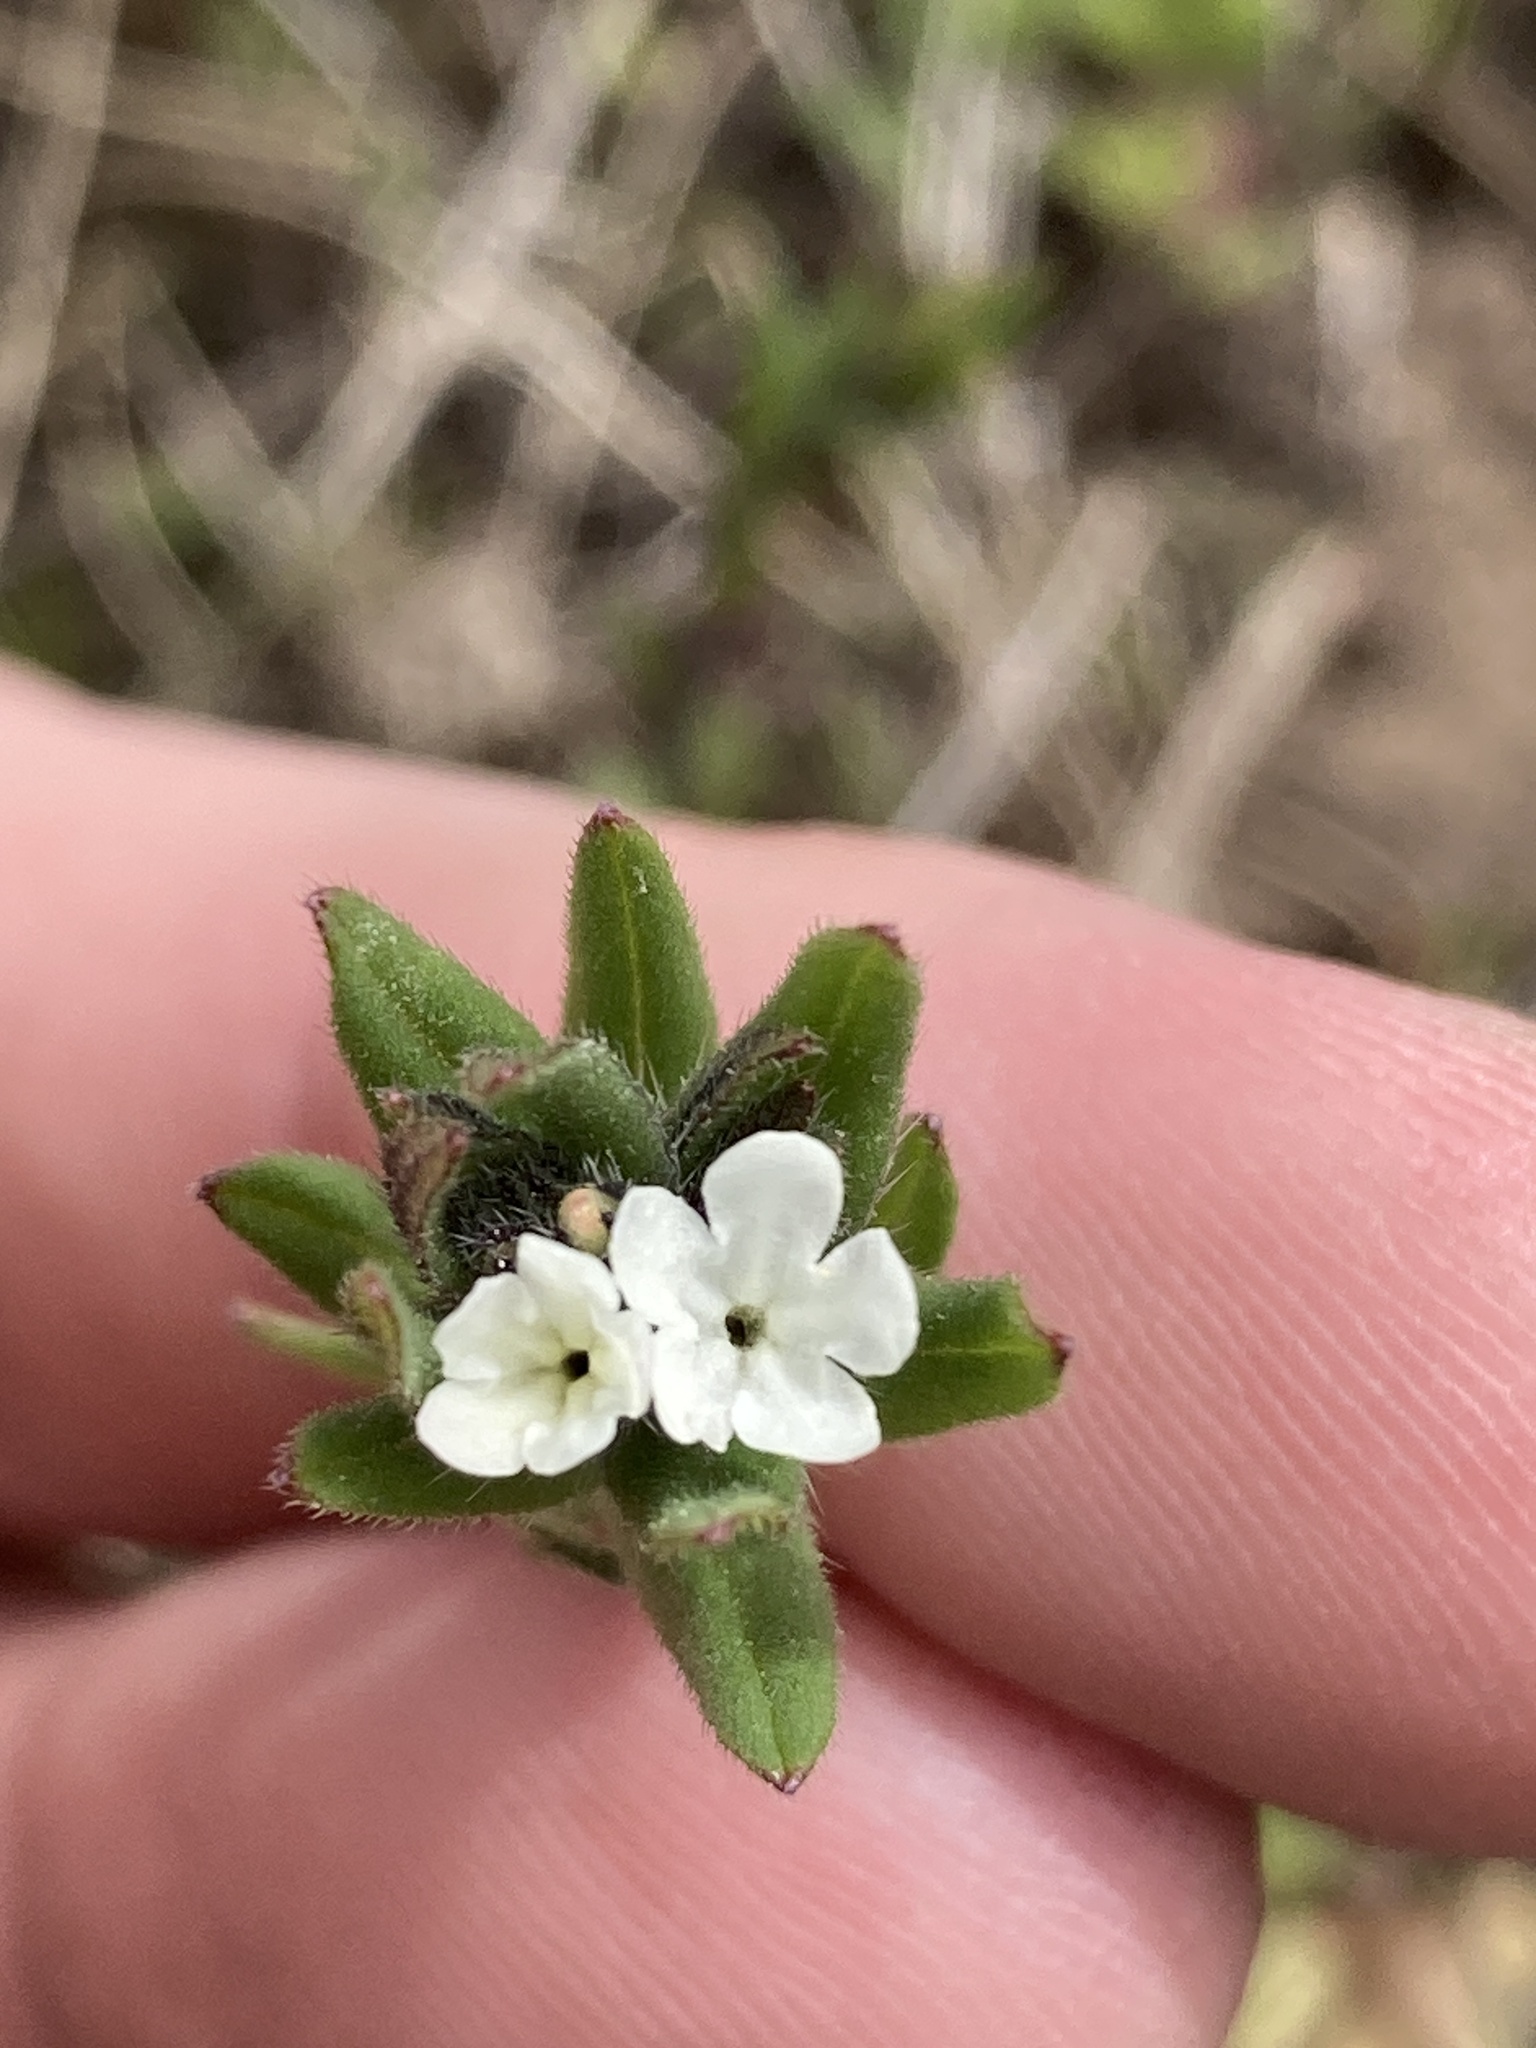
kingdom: Plantae
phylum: Tracheophyta
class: Magnoliopsida
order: Boraginales
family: Boraginaceae
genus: Buglossoides
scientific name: Buglossoides arvensis
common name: Corn gromwell
